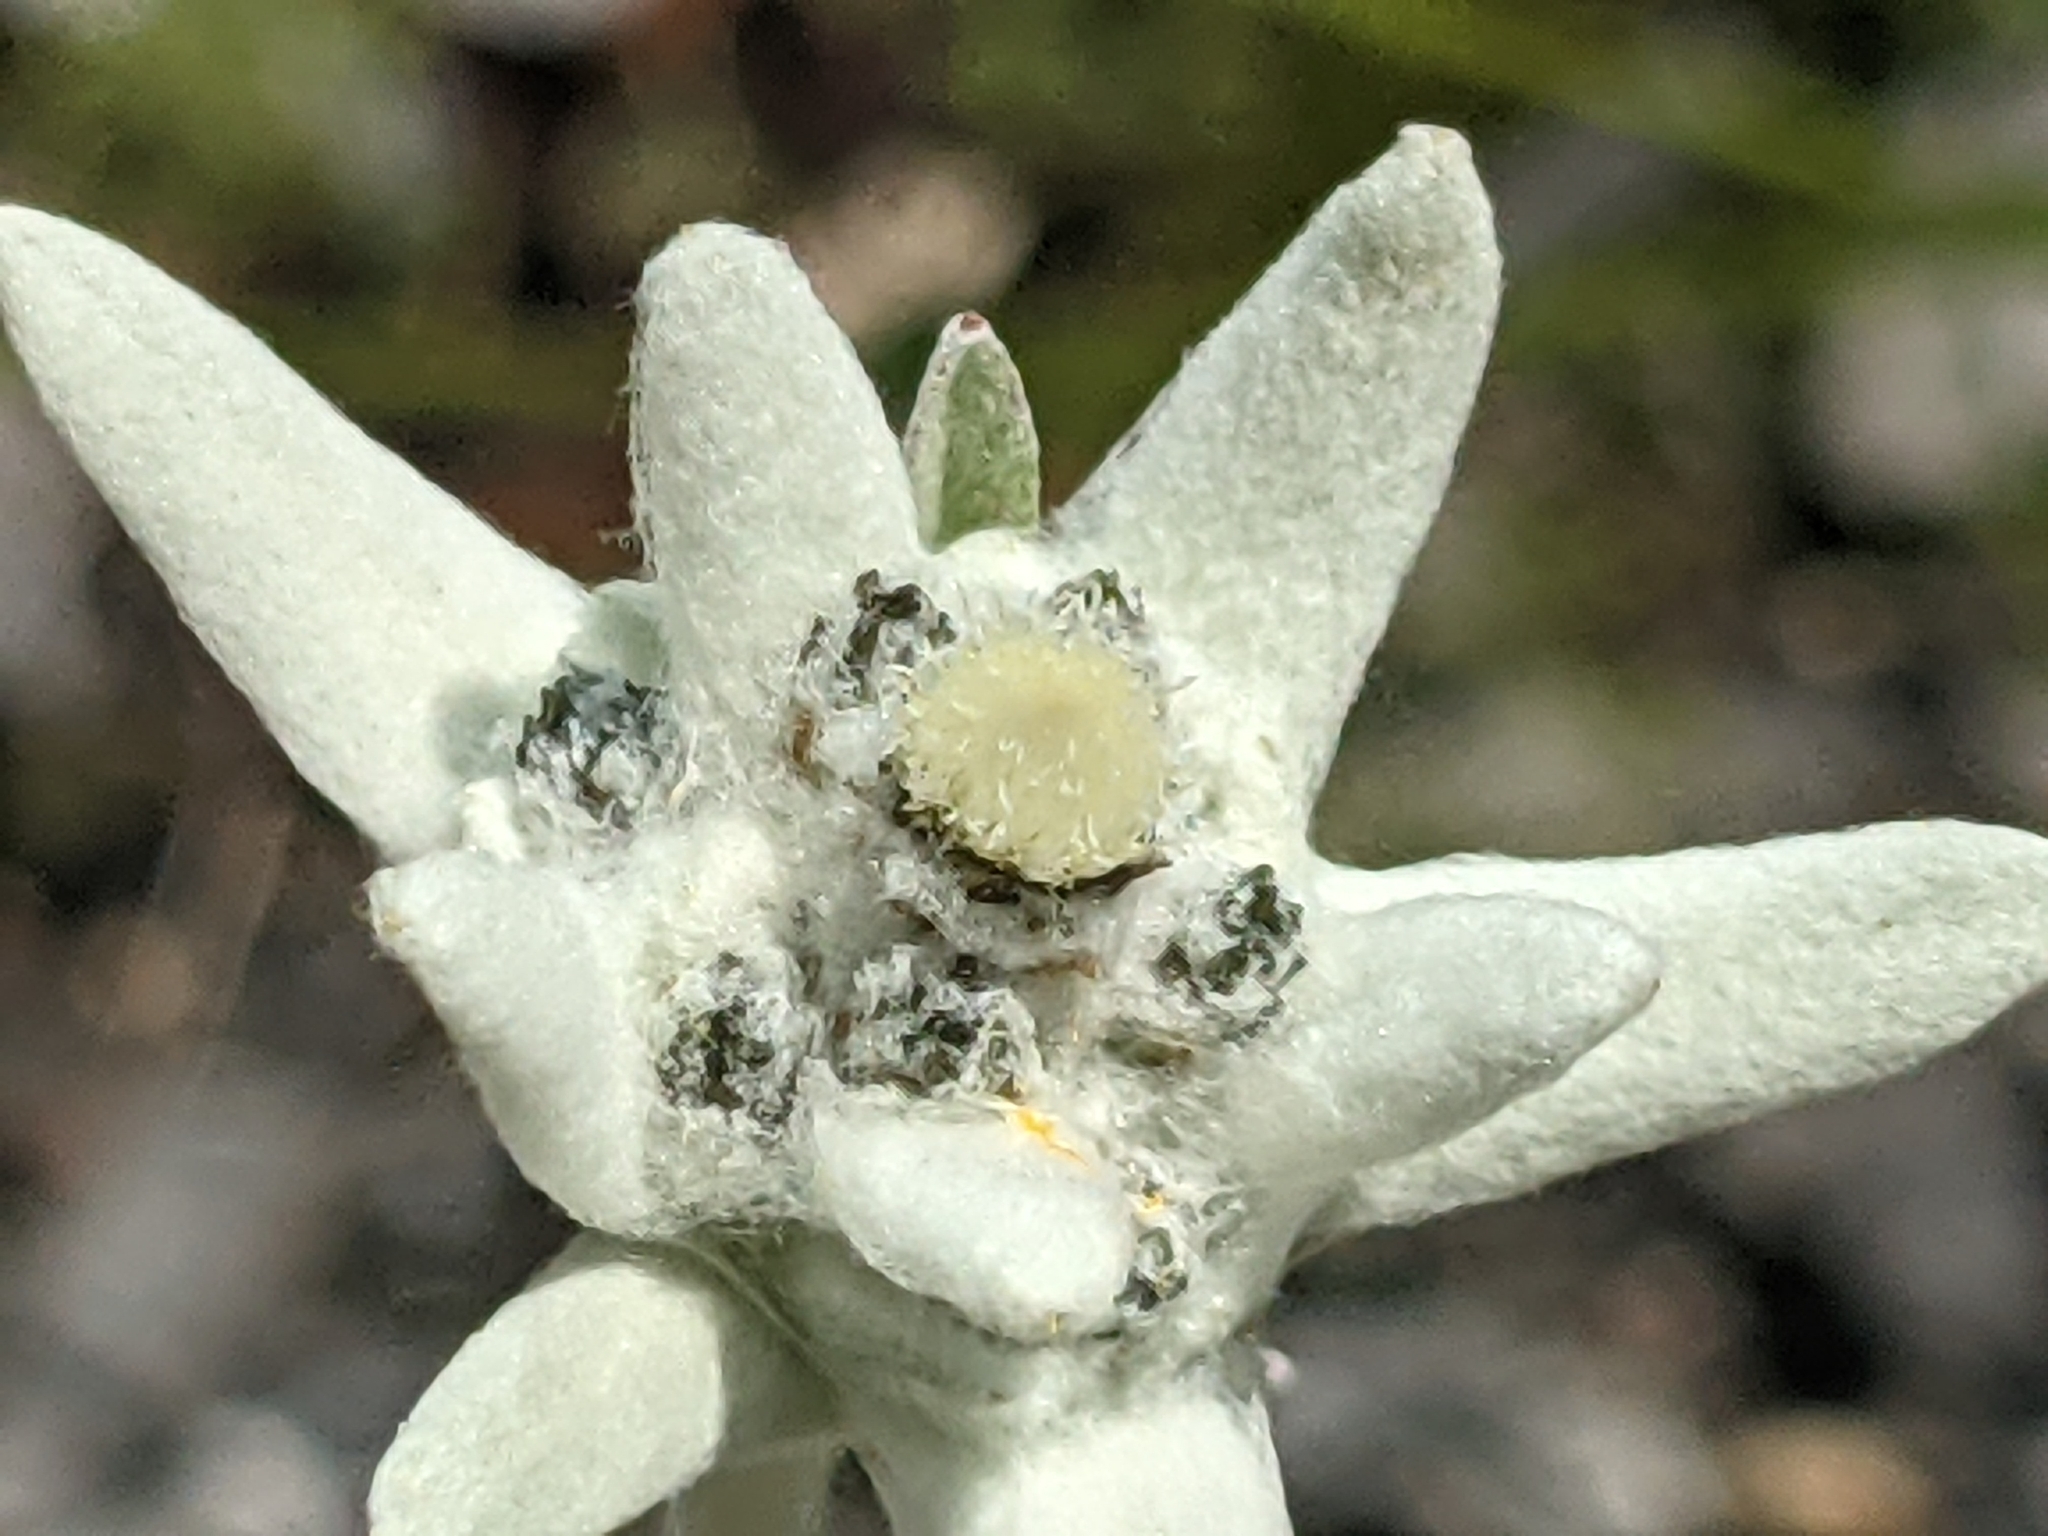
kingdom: Plantae
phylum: Tracheophyta
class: Magnoliopsida
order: Asterales
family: Asteraceae
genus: Leontopodium
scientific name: Leontopodium nivale
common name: Edelweiss
